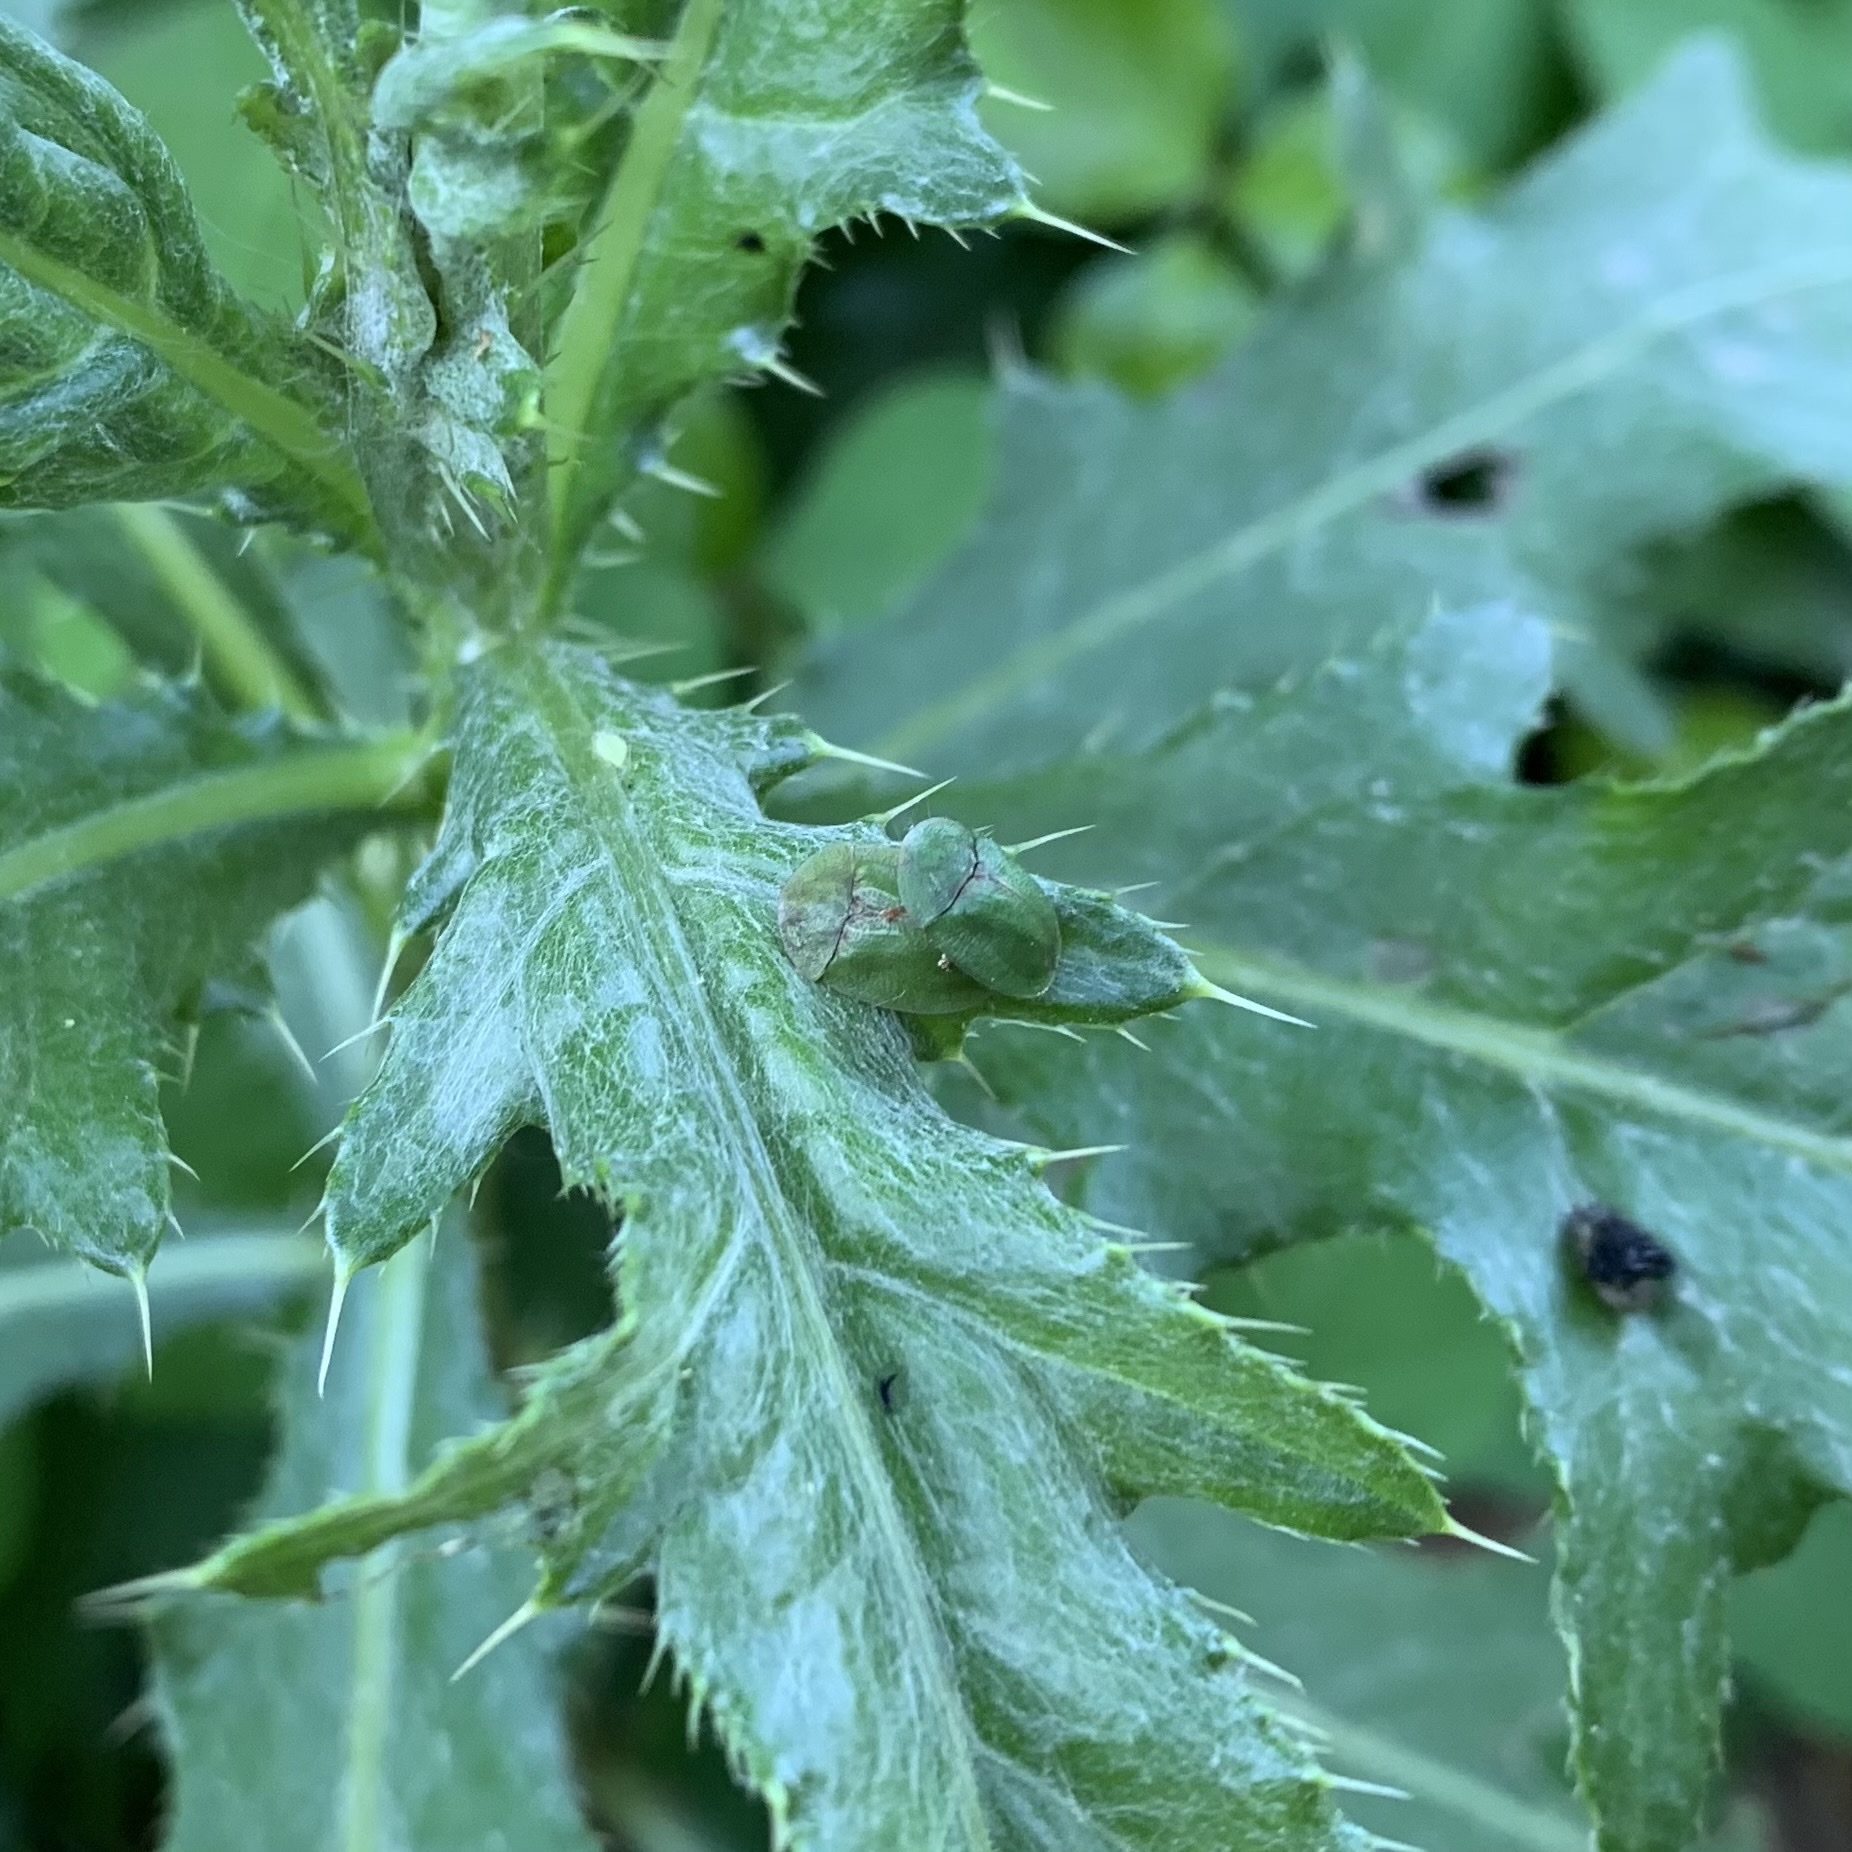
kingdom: Animalia
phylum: Arthropoda
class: Insecta
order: Coleoptera
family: Chrysomelidae
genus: Cassida
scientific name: Cassida rubiginosa
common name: Thistle tortoise beetle
